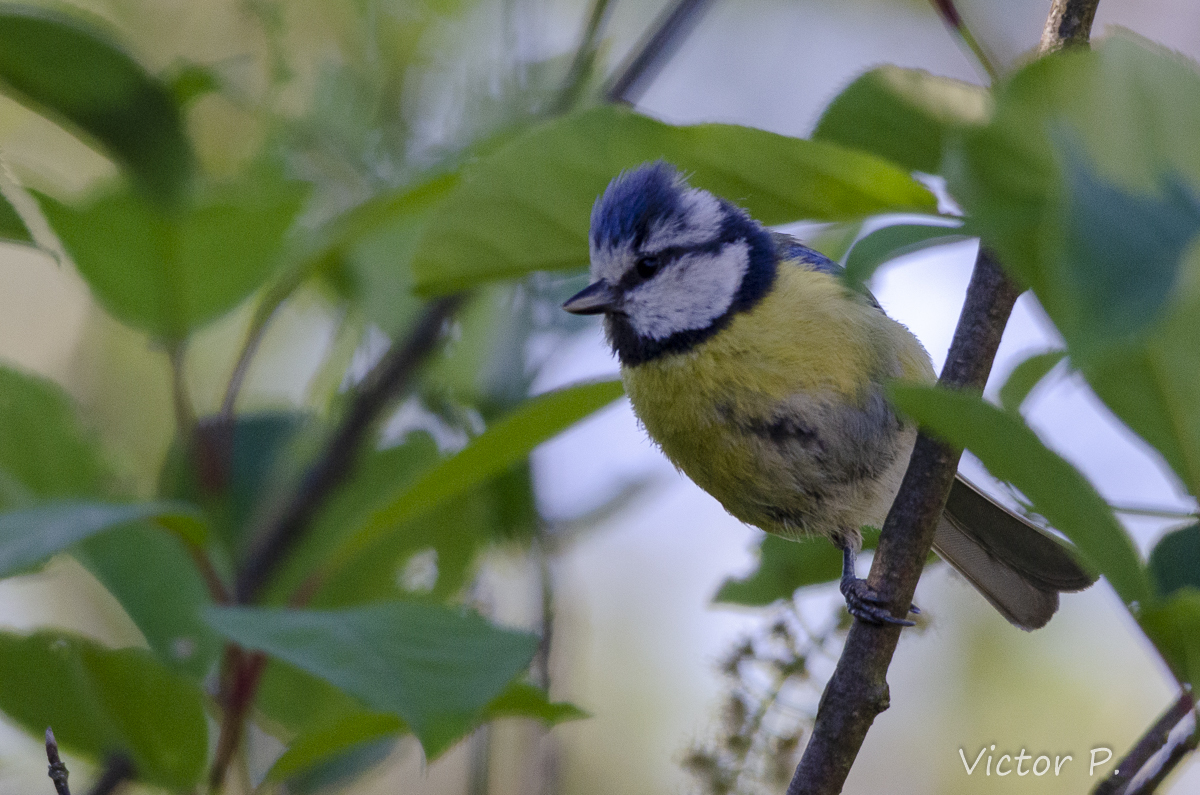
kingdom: Animalia
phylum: Chordata
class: Aves
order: Passeriformes
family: Paridae
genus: Cyanistes
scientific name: Cyanistes caeruleus
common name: Eurasian blue tit
